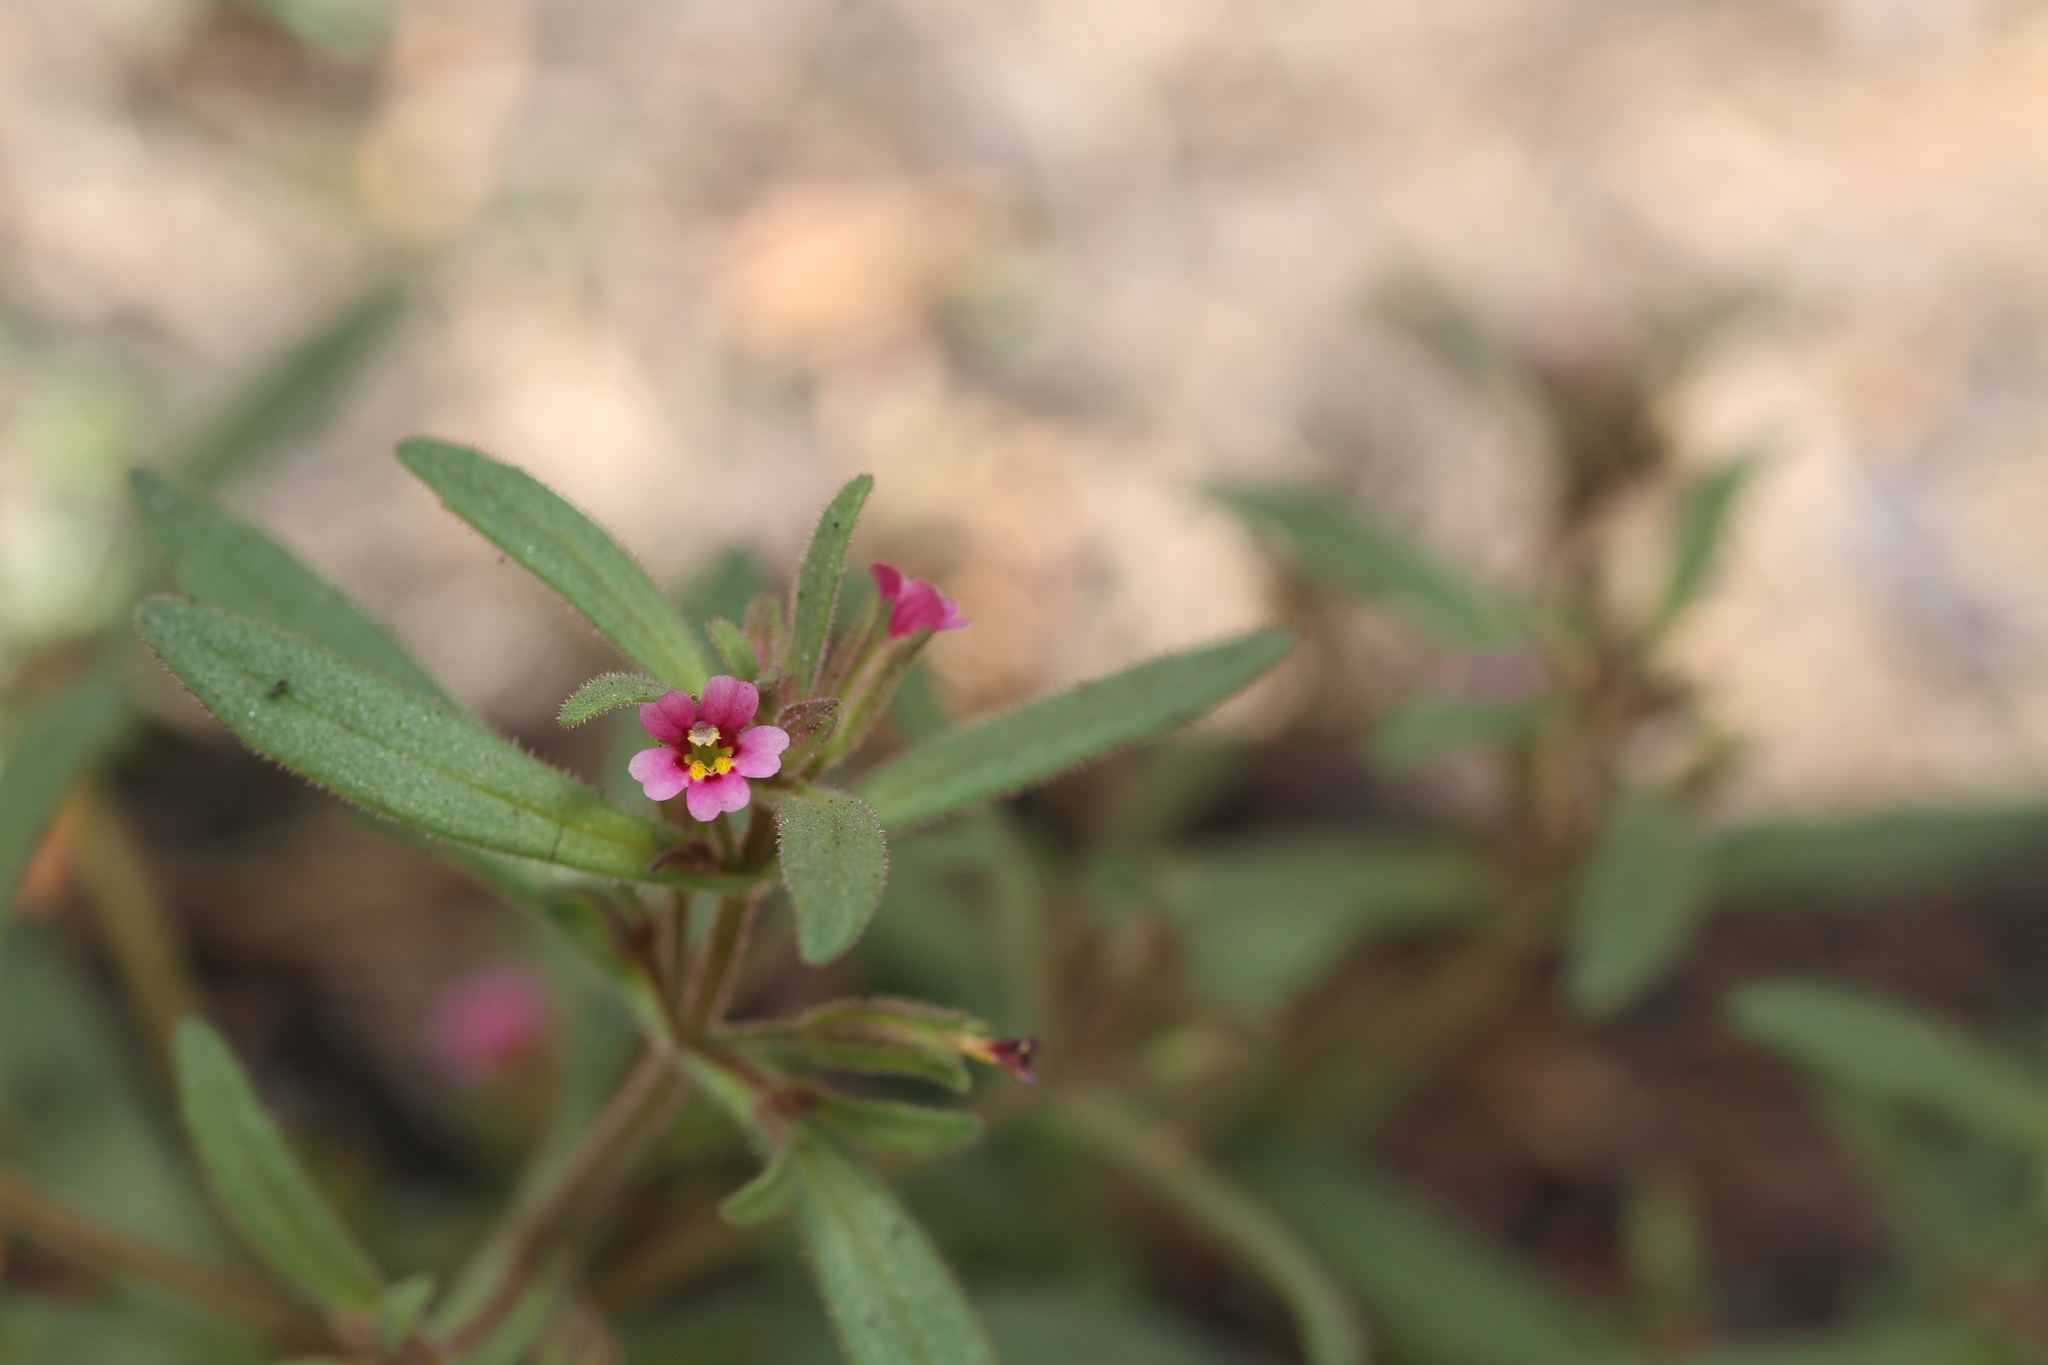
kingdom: Plantae
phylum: Tracheophyta
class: Magnoliopsida
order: Lamiales
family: Phrymaceae
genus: Erythranthe
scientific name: Erythranthe breweri
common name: Brewer's monkeyflower
